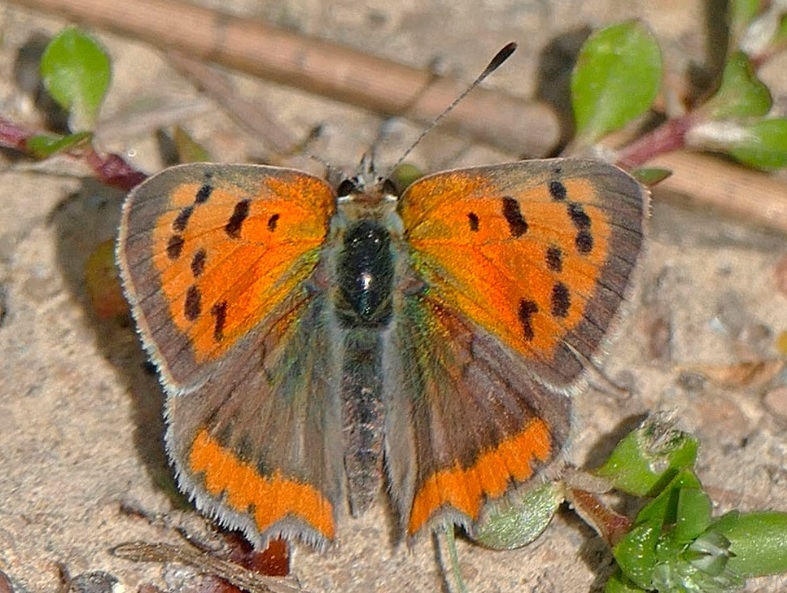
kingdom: Animalia
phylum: Arthropoda
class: Insecta
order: Lepidoptera
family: Lycaenidae
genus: Lycaena
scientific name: Lycaena phlaeas
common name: Small copper
